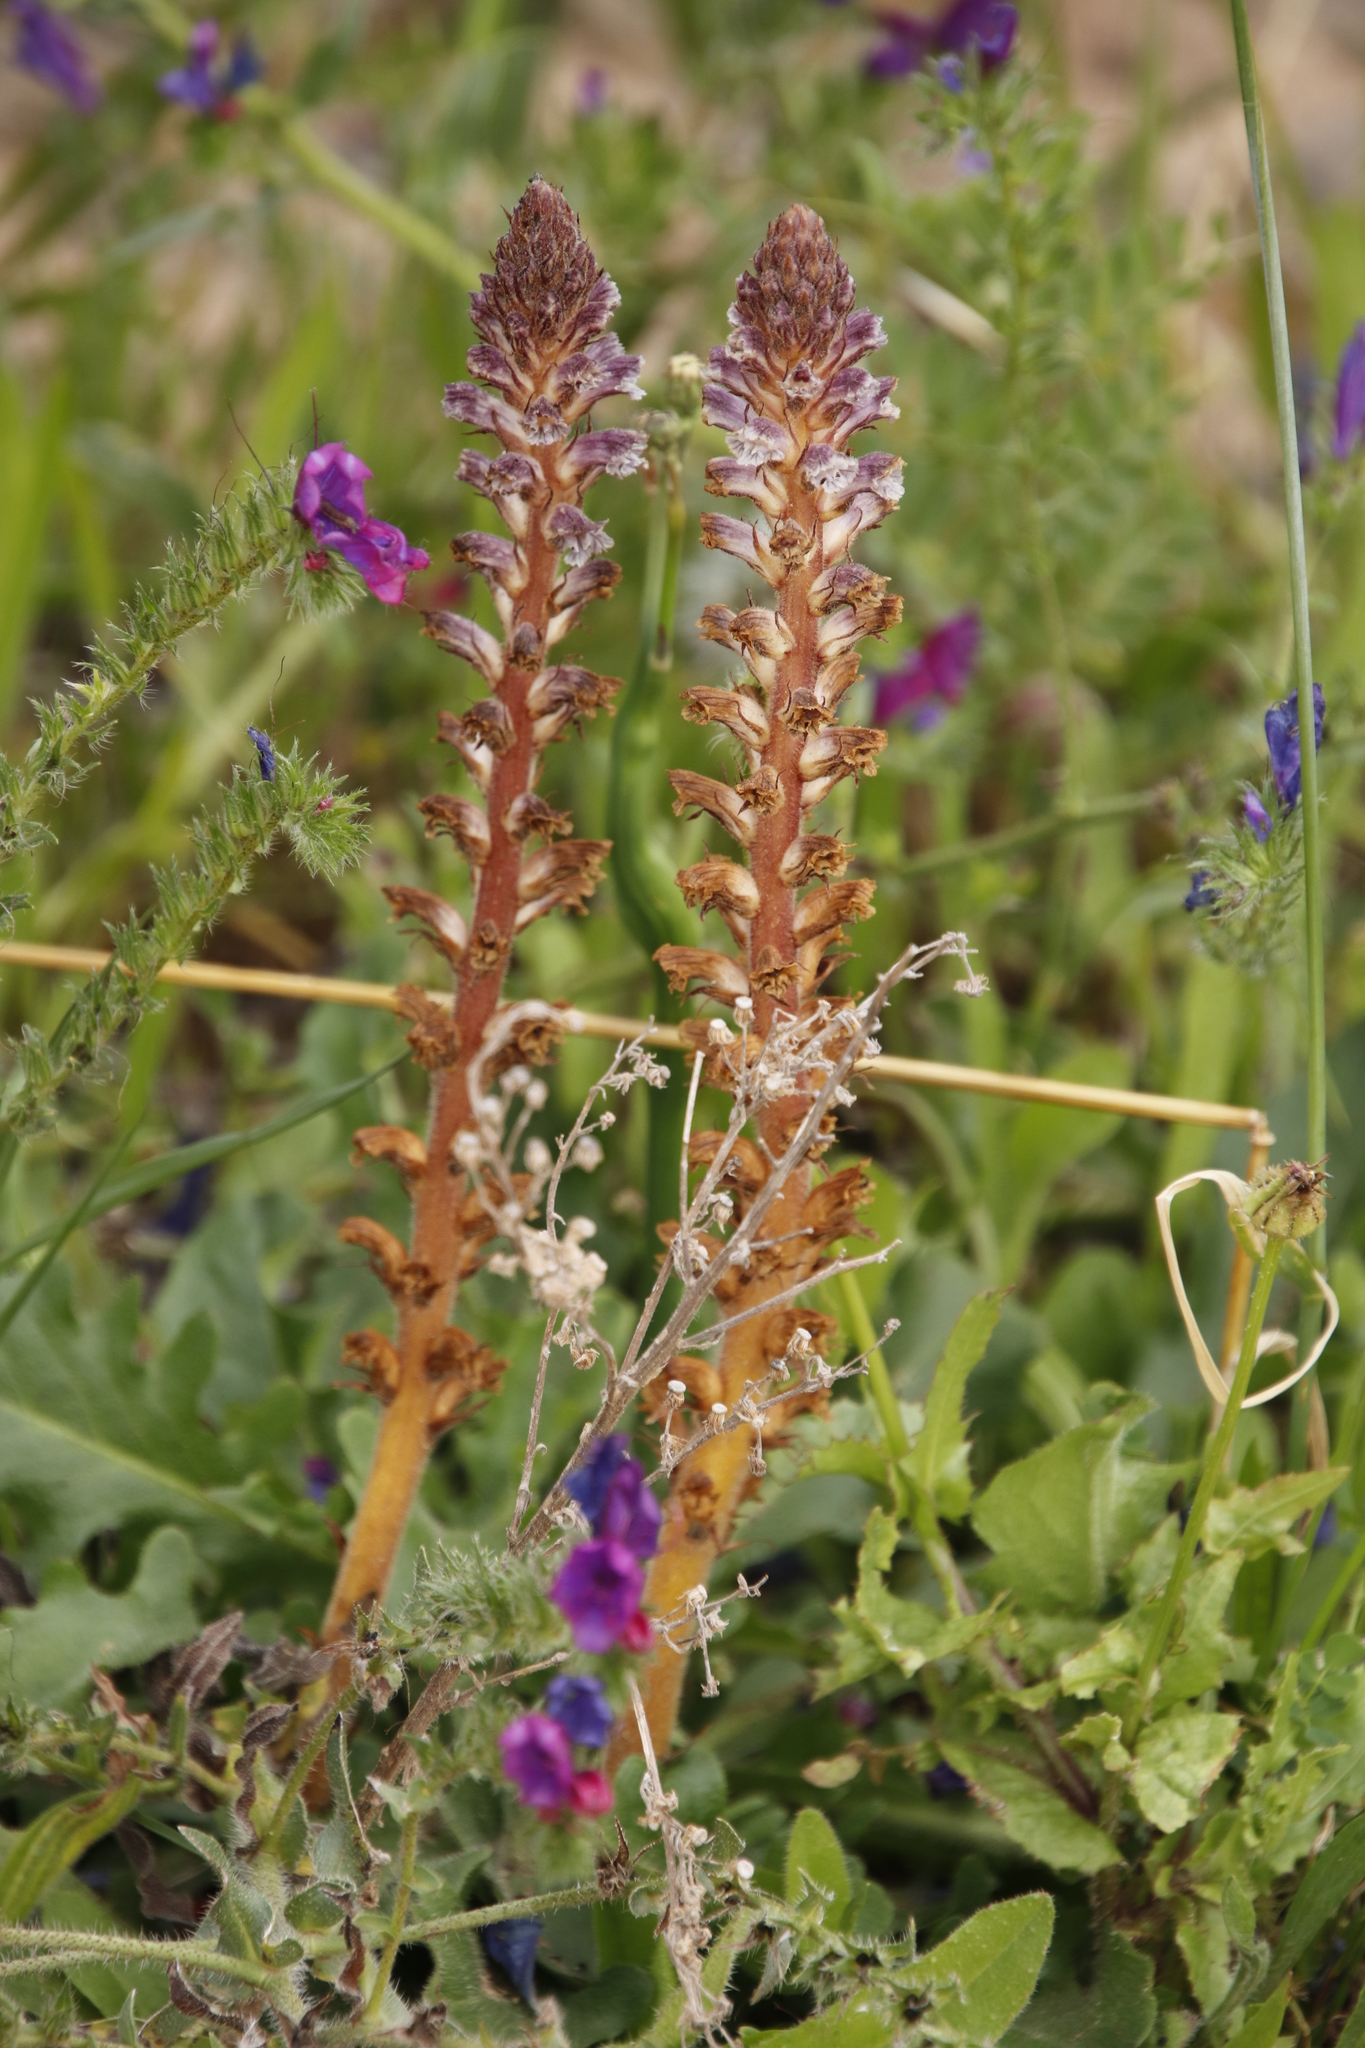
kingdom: Plantae
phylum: Tracheophyta
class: Magnoliopsida
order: Lamiales
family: Orobanchaceae
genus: Orobanche
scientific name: Orobanche minor
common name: Common broomrape
